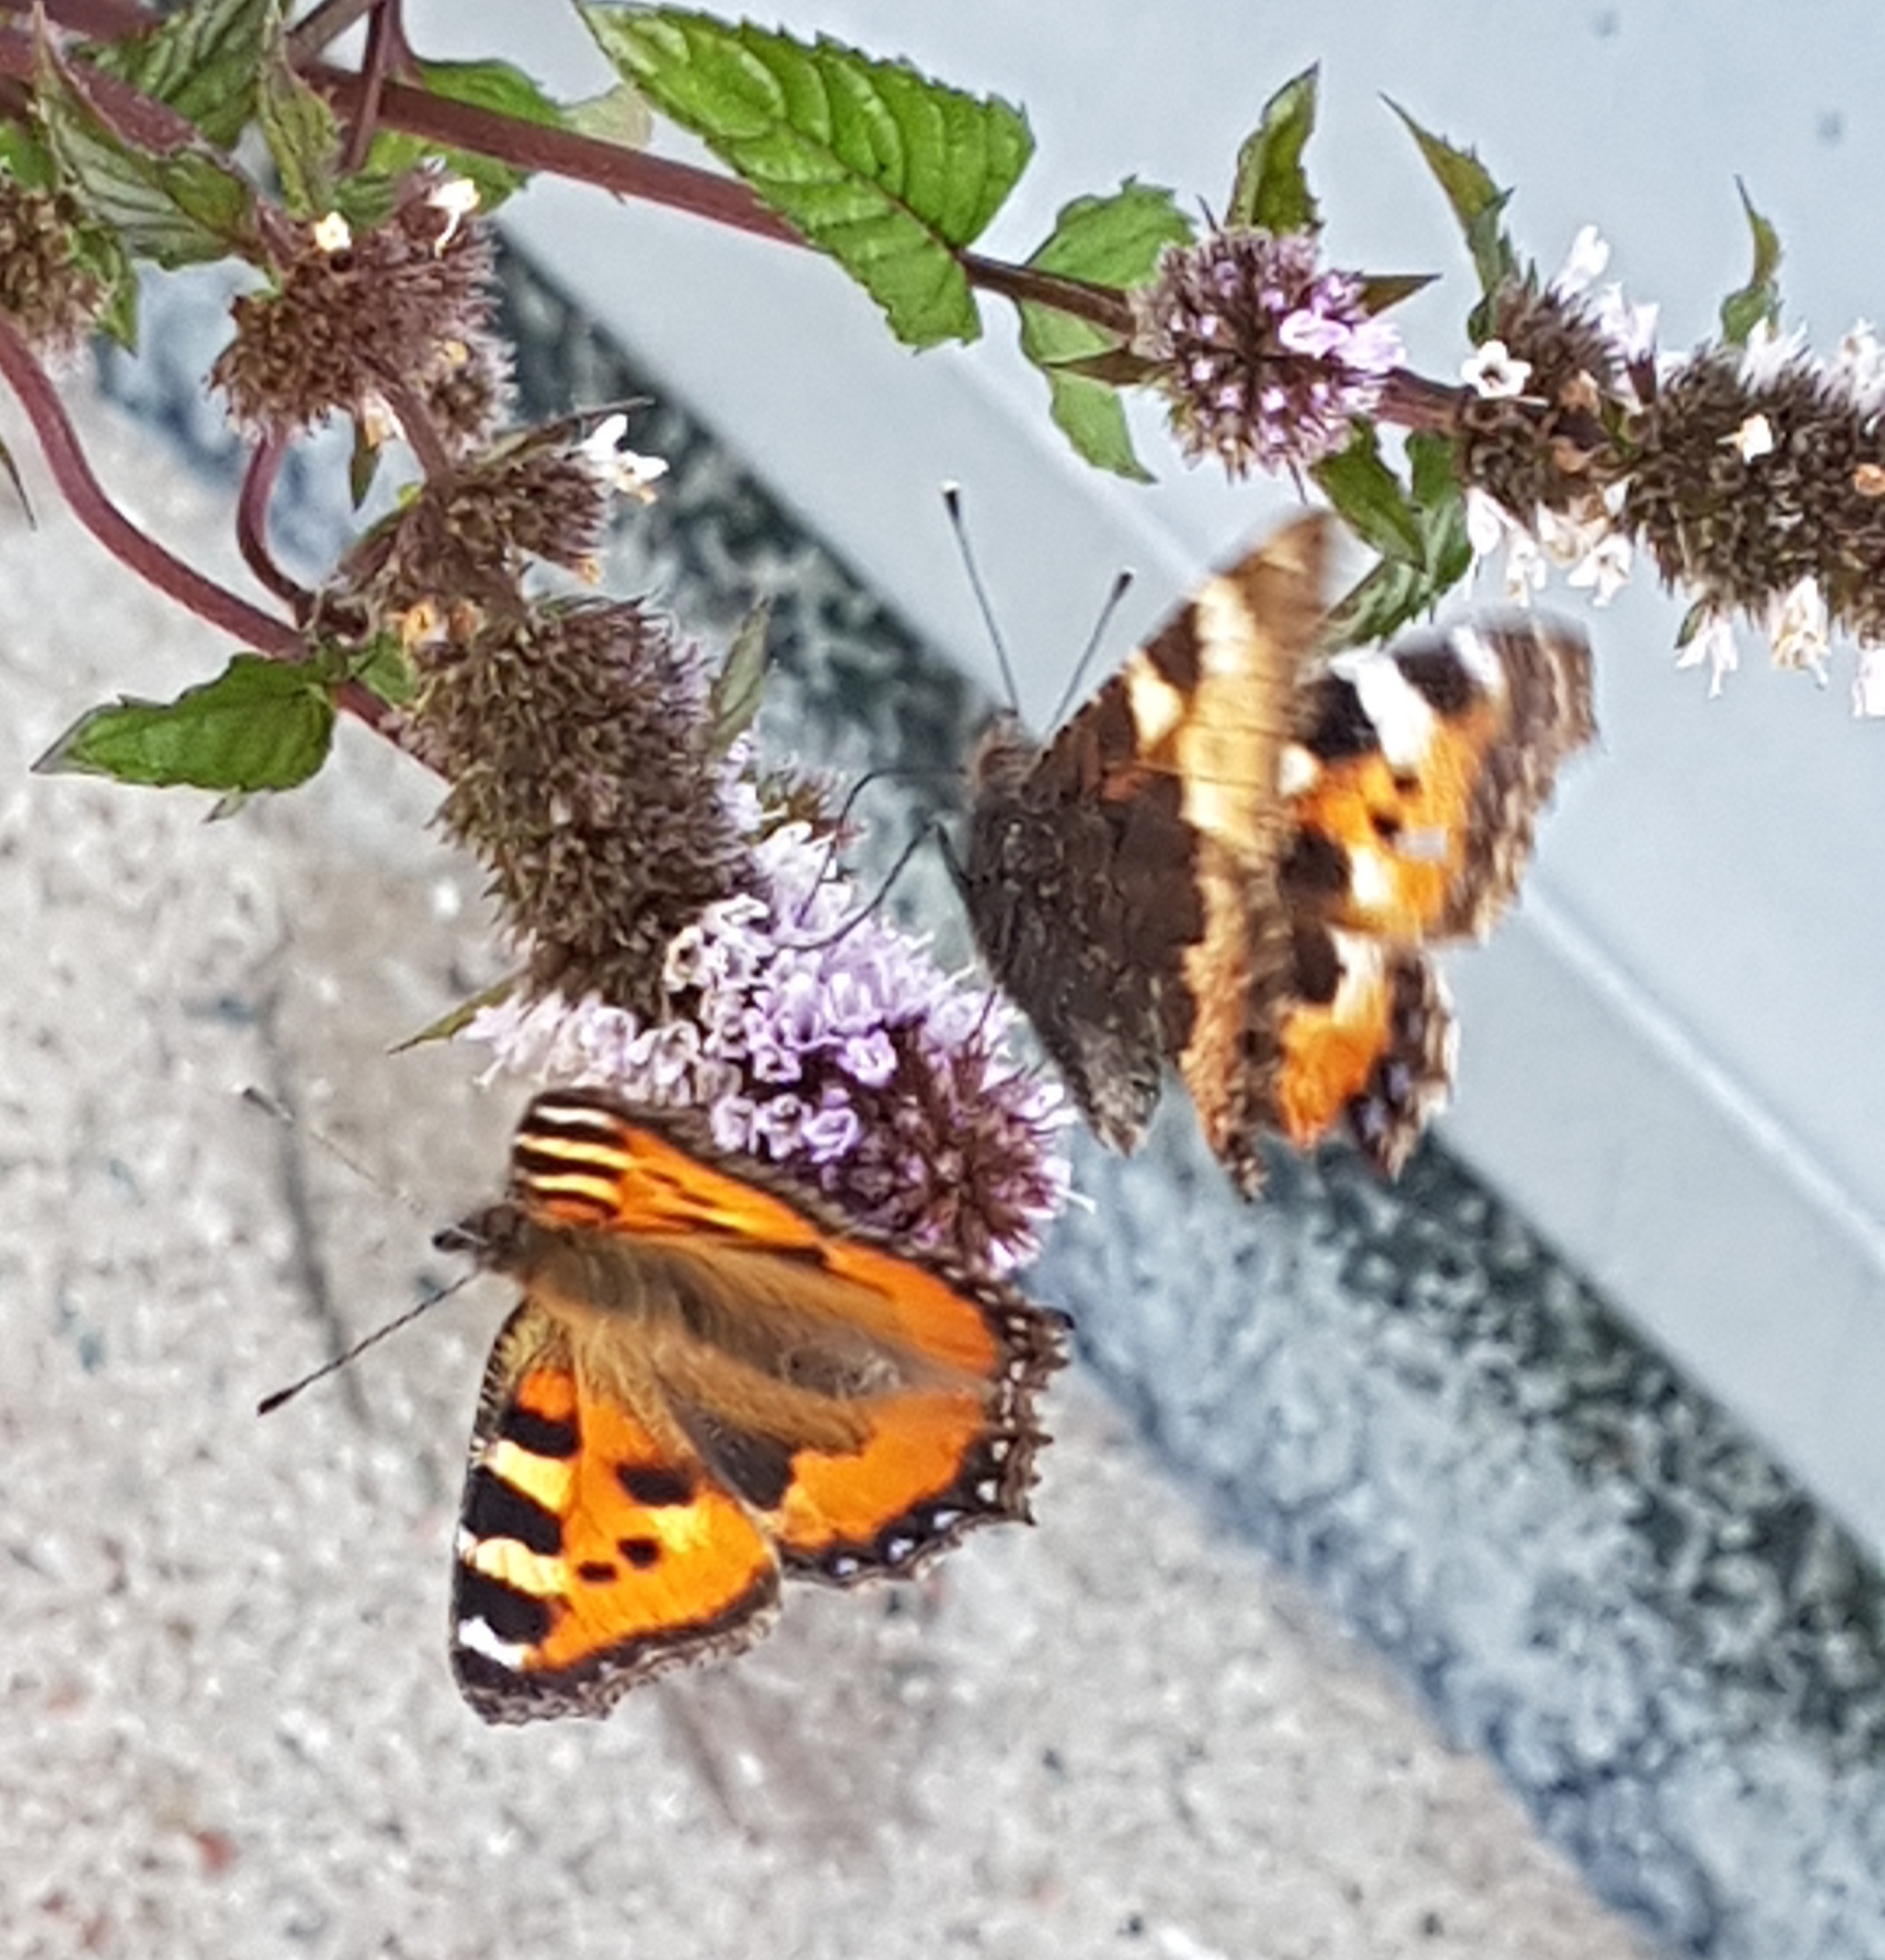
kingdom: Animalia
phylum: Arthropoda
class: Insecta
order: Lepidoptera
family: Nymphalidae
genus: Aglais
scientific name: Aglais urticae
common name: Small tortoiseshell
